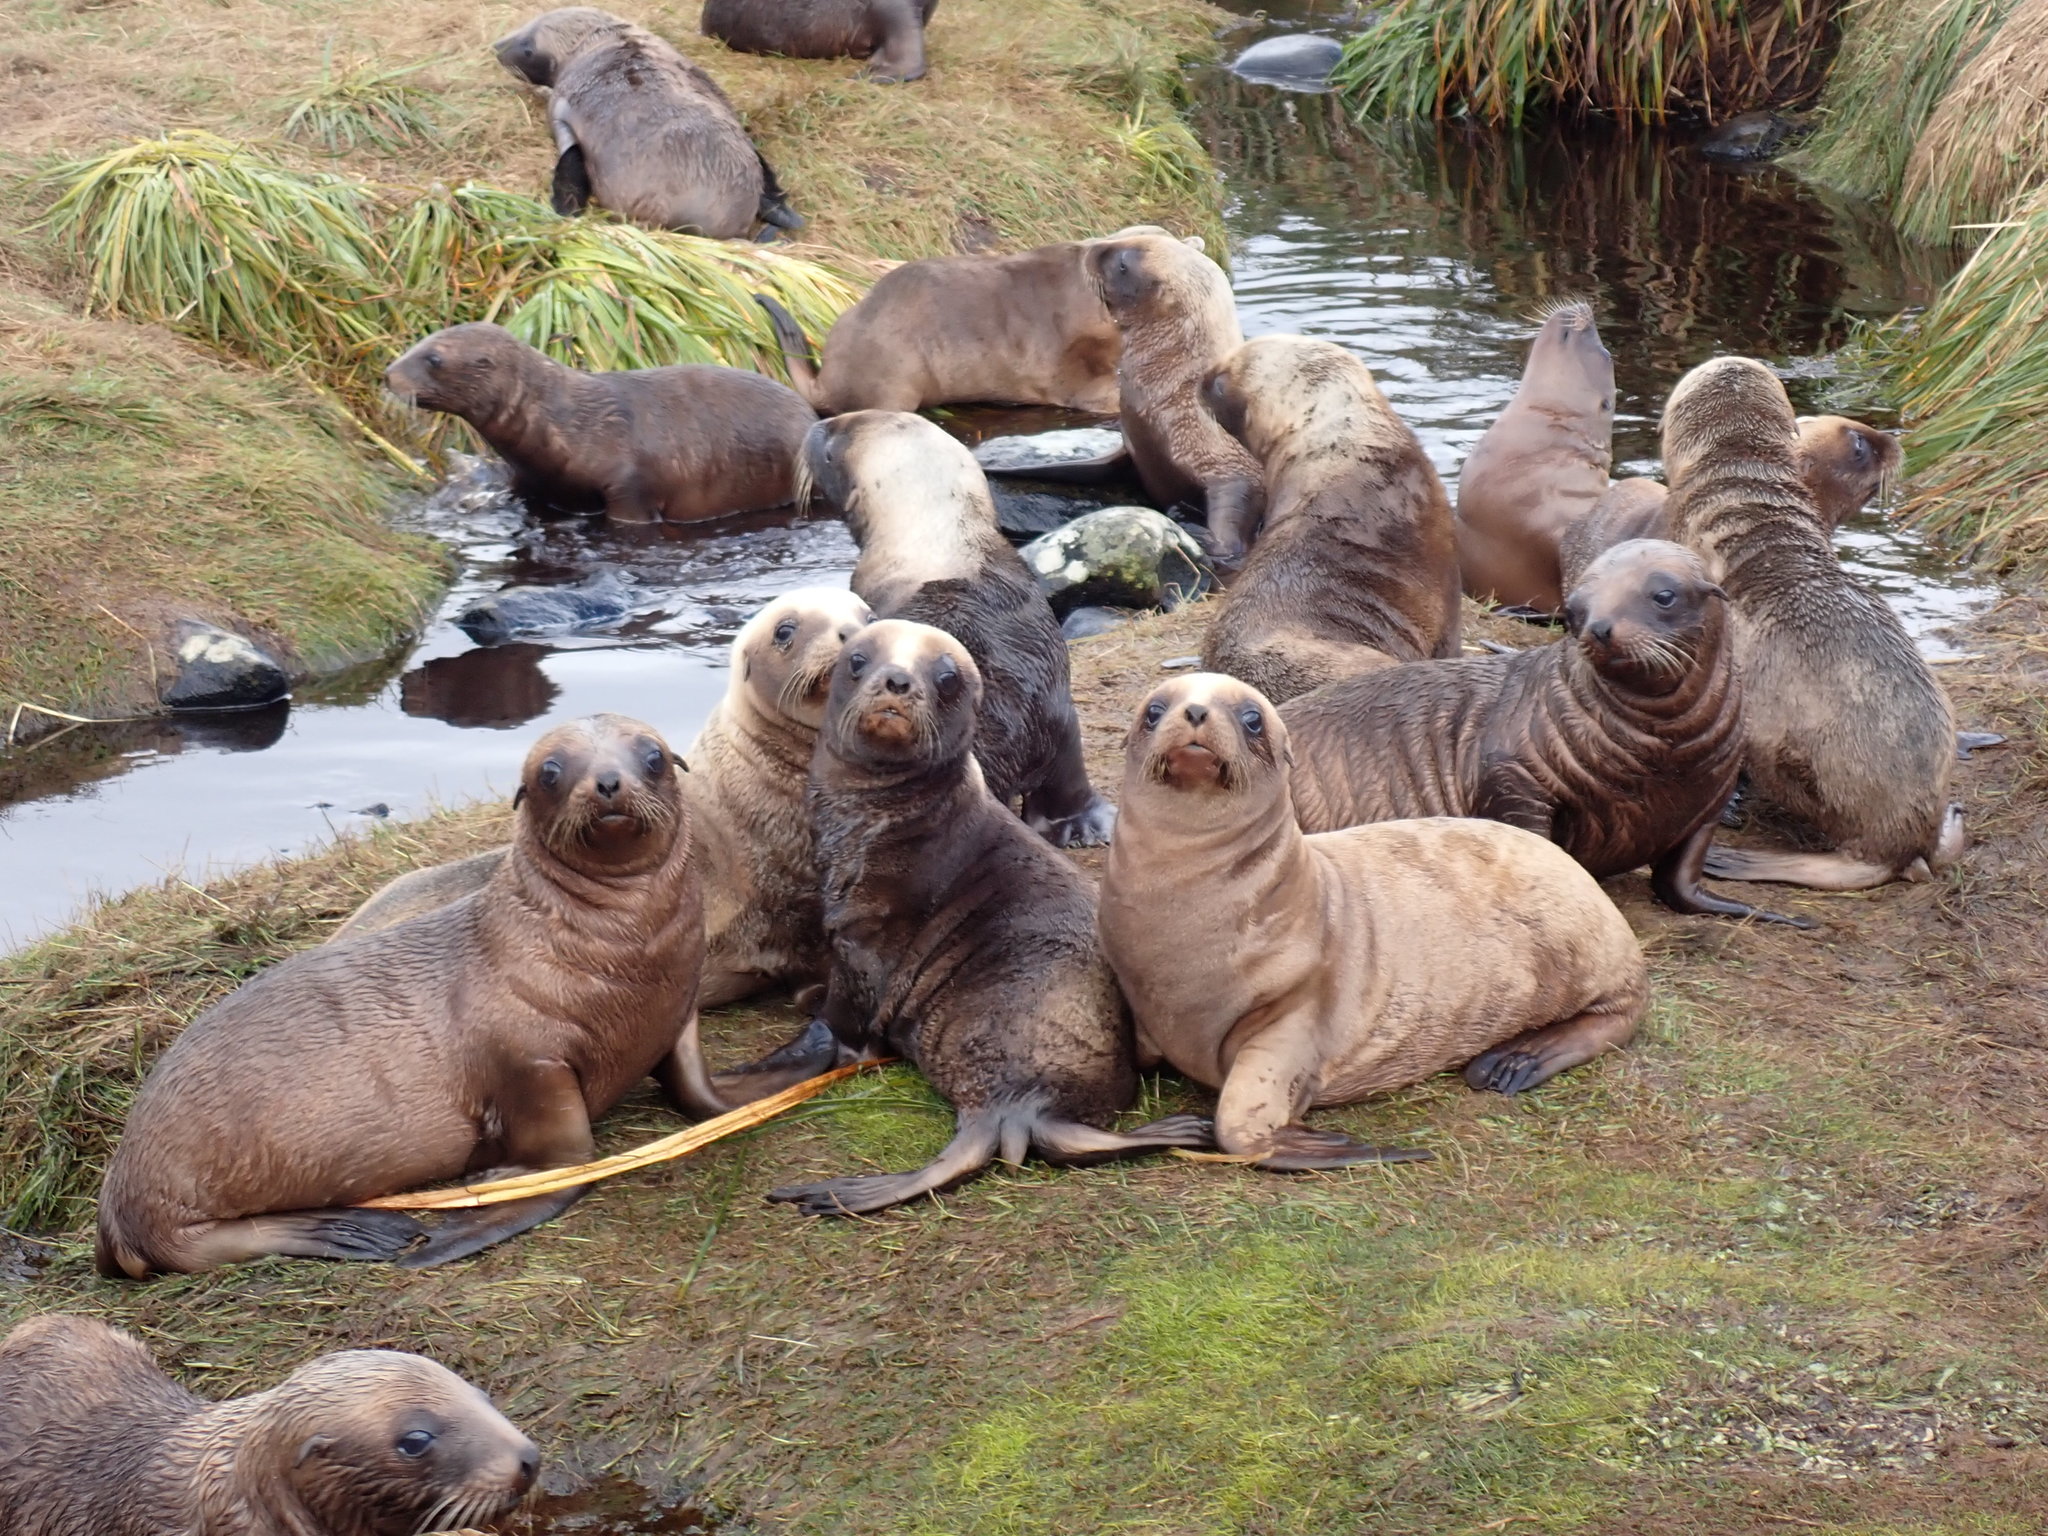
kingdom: Animalia
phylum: Chordata
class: Mammalia
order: Carnivora
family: Otariidae
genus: Phocarctos
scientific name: Phocarctos hookeri
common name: New zealand sea lion
